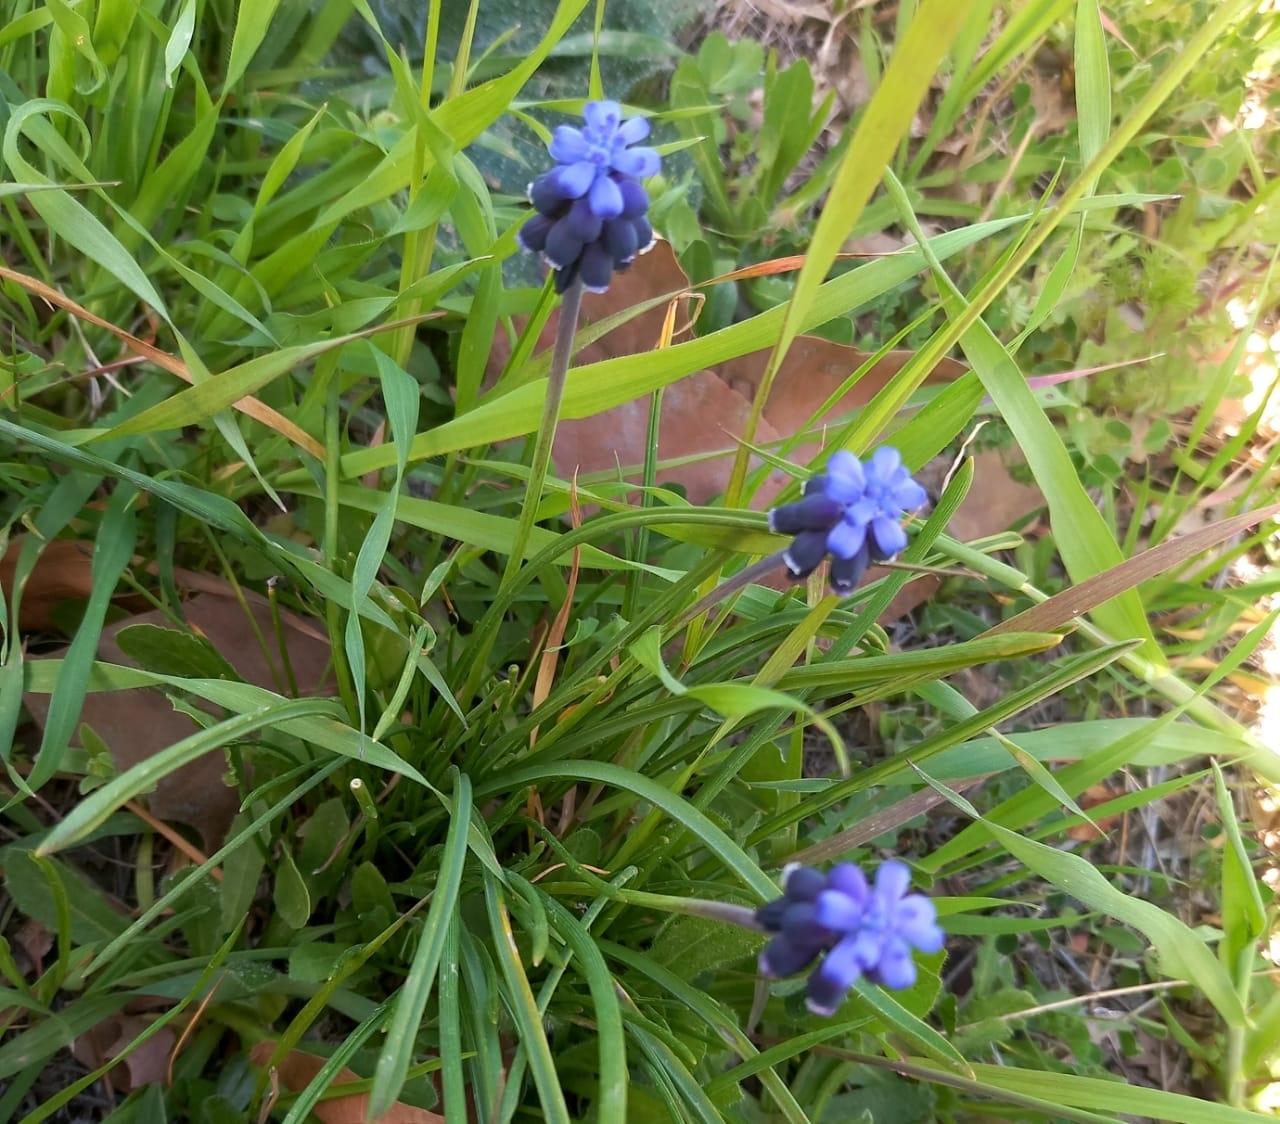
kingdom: Plantae
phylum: Tracheophyta
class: Liliopsida
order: Asparagales
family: Asparagaceae
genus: Muscari
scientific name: Muscari neglectum
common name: Grape-hyacinth
